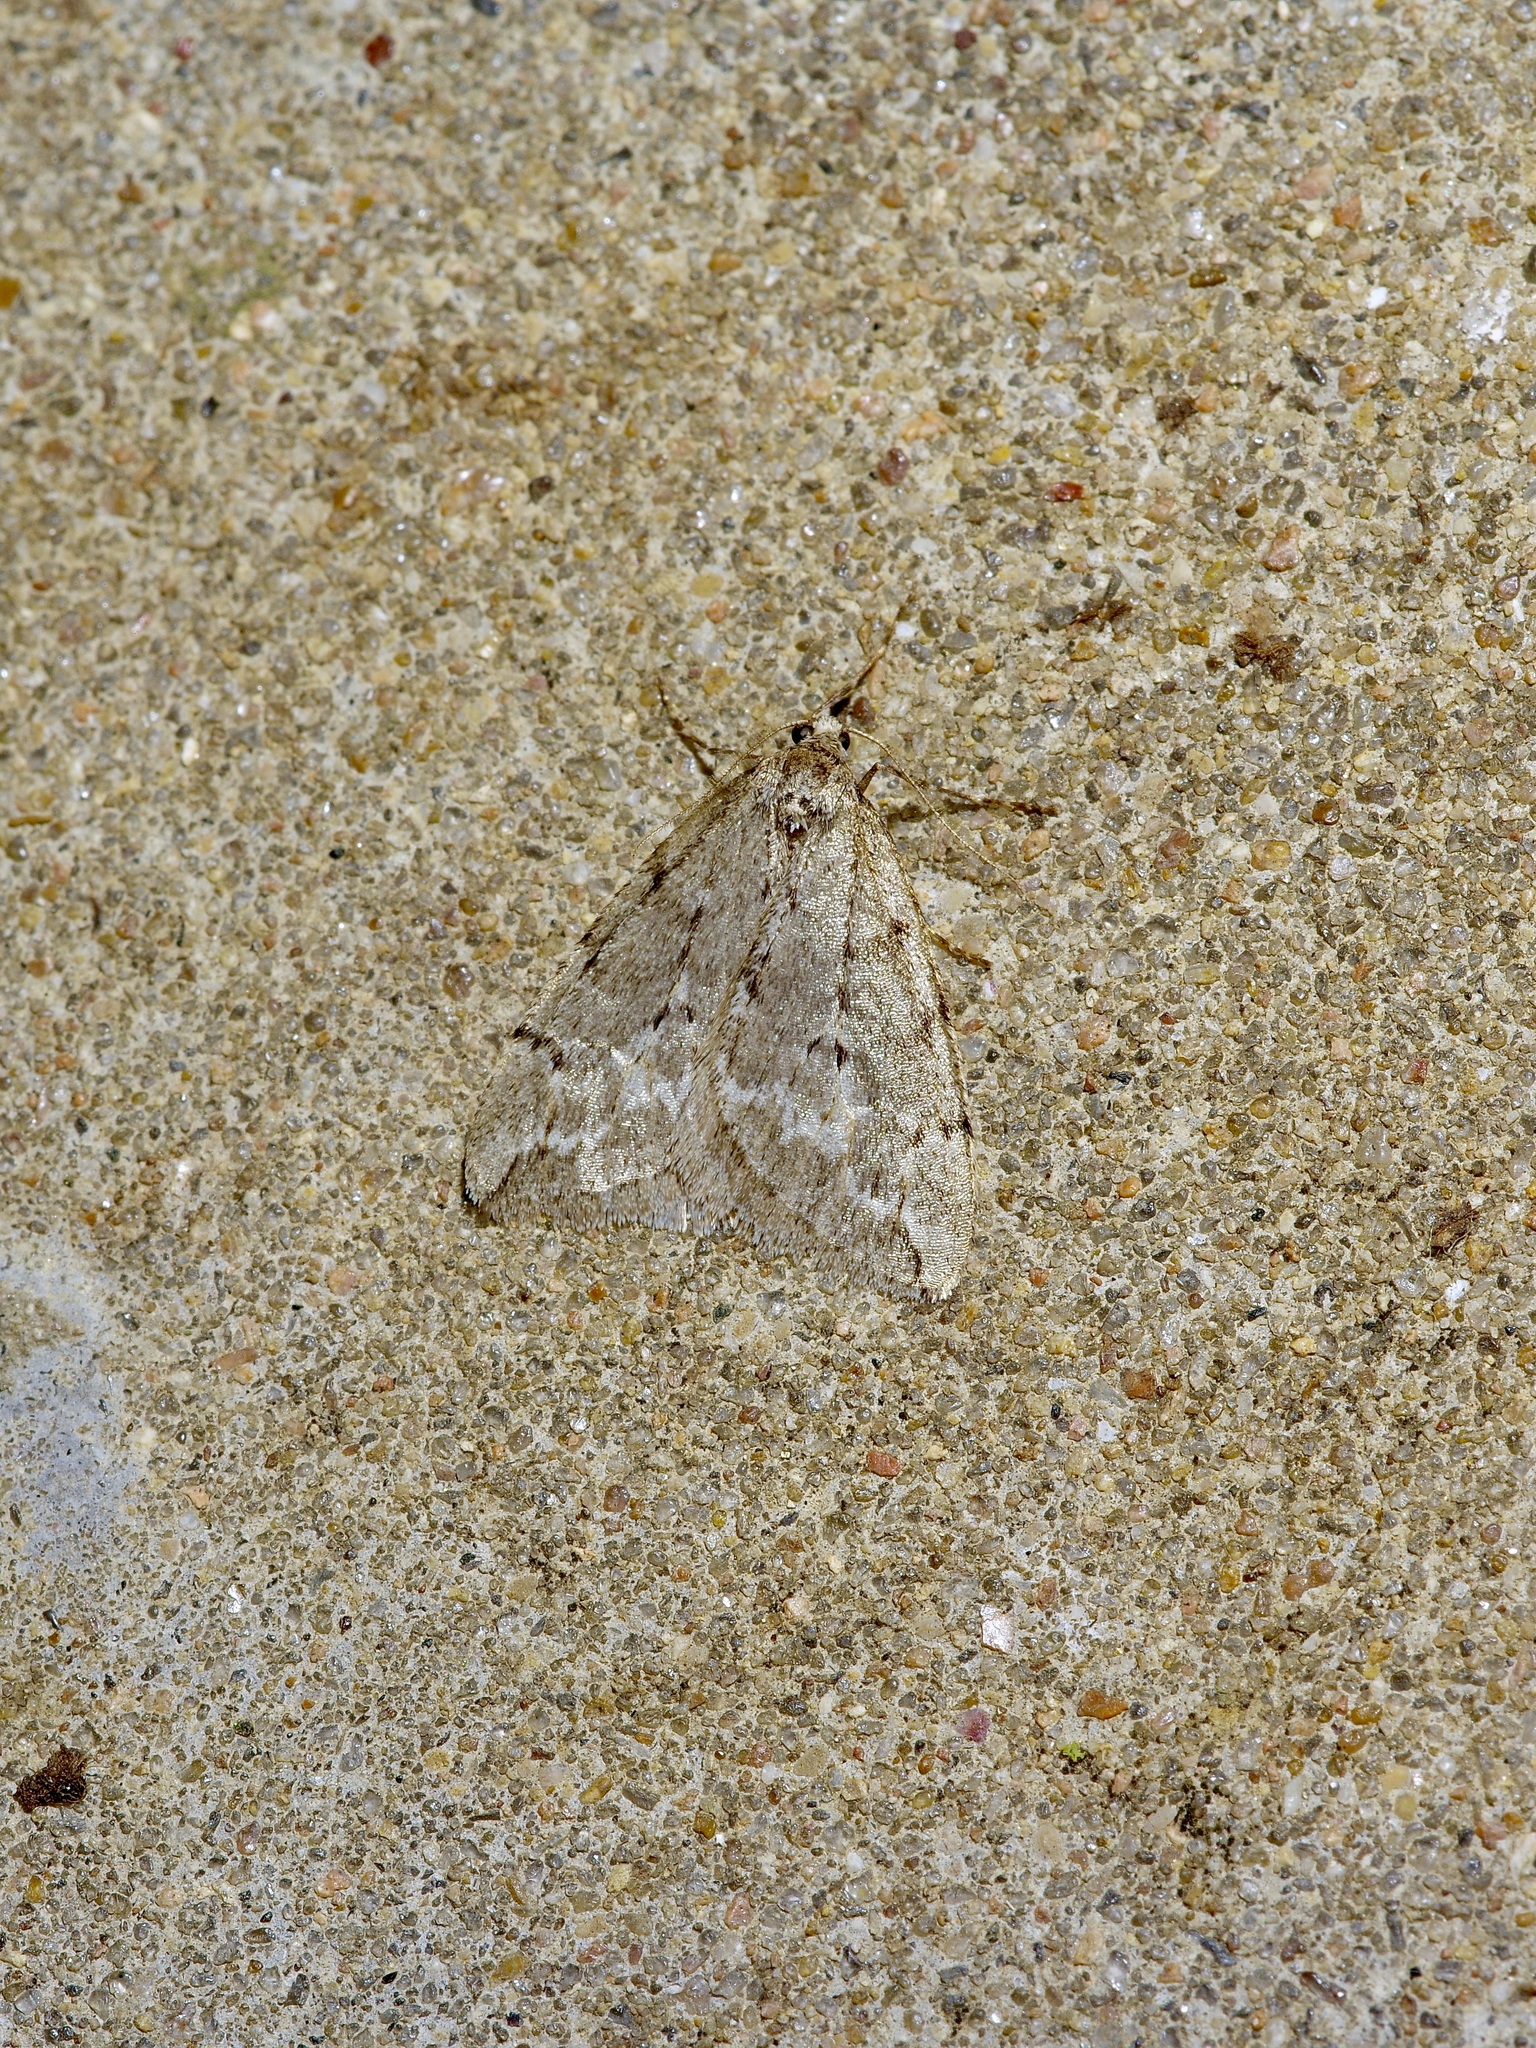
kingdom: Animalia
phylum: Arthropoda
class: Insecta
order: Lepidoptera
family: Geometridae
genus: Paleacrita
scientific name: Paleacrita vernata
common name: Spring cankerworm
